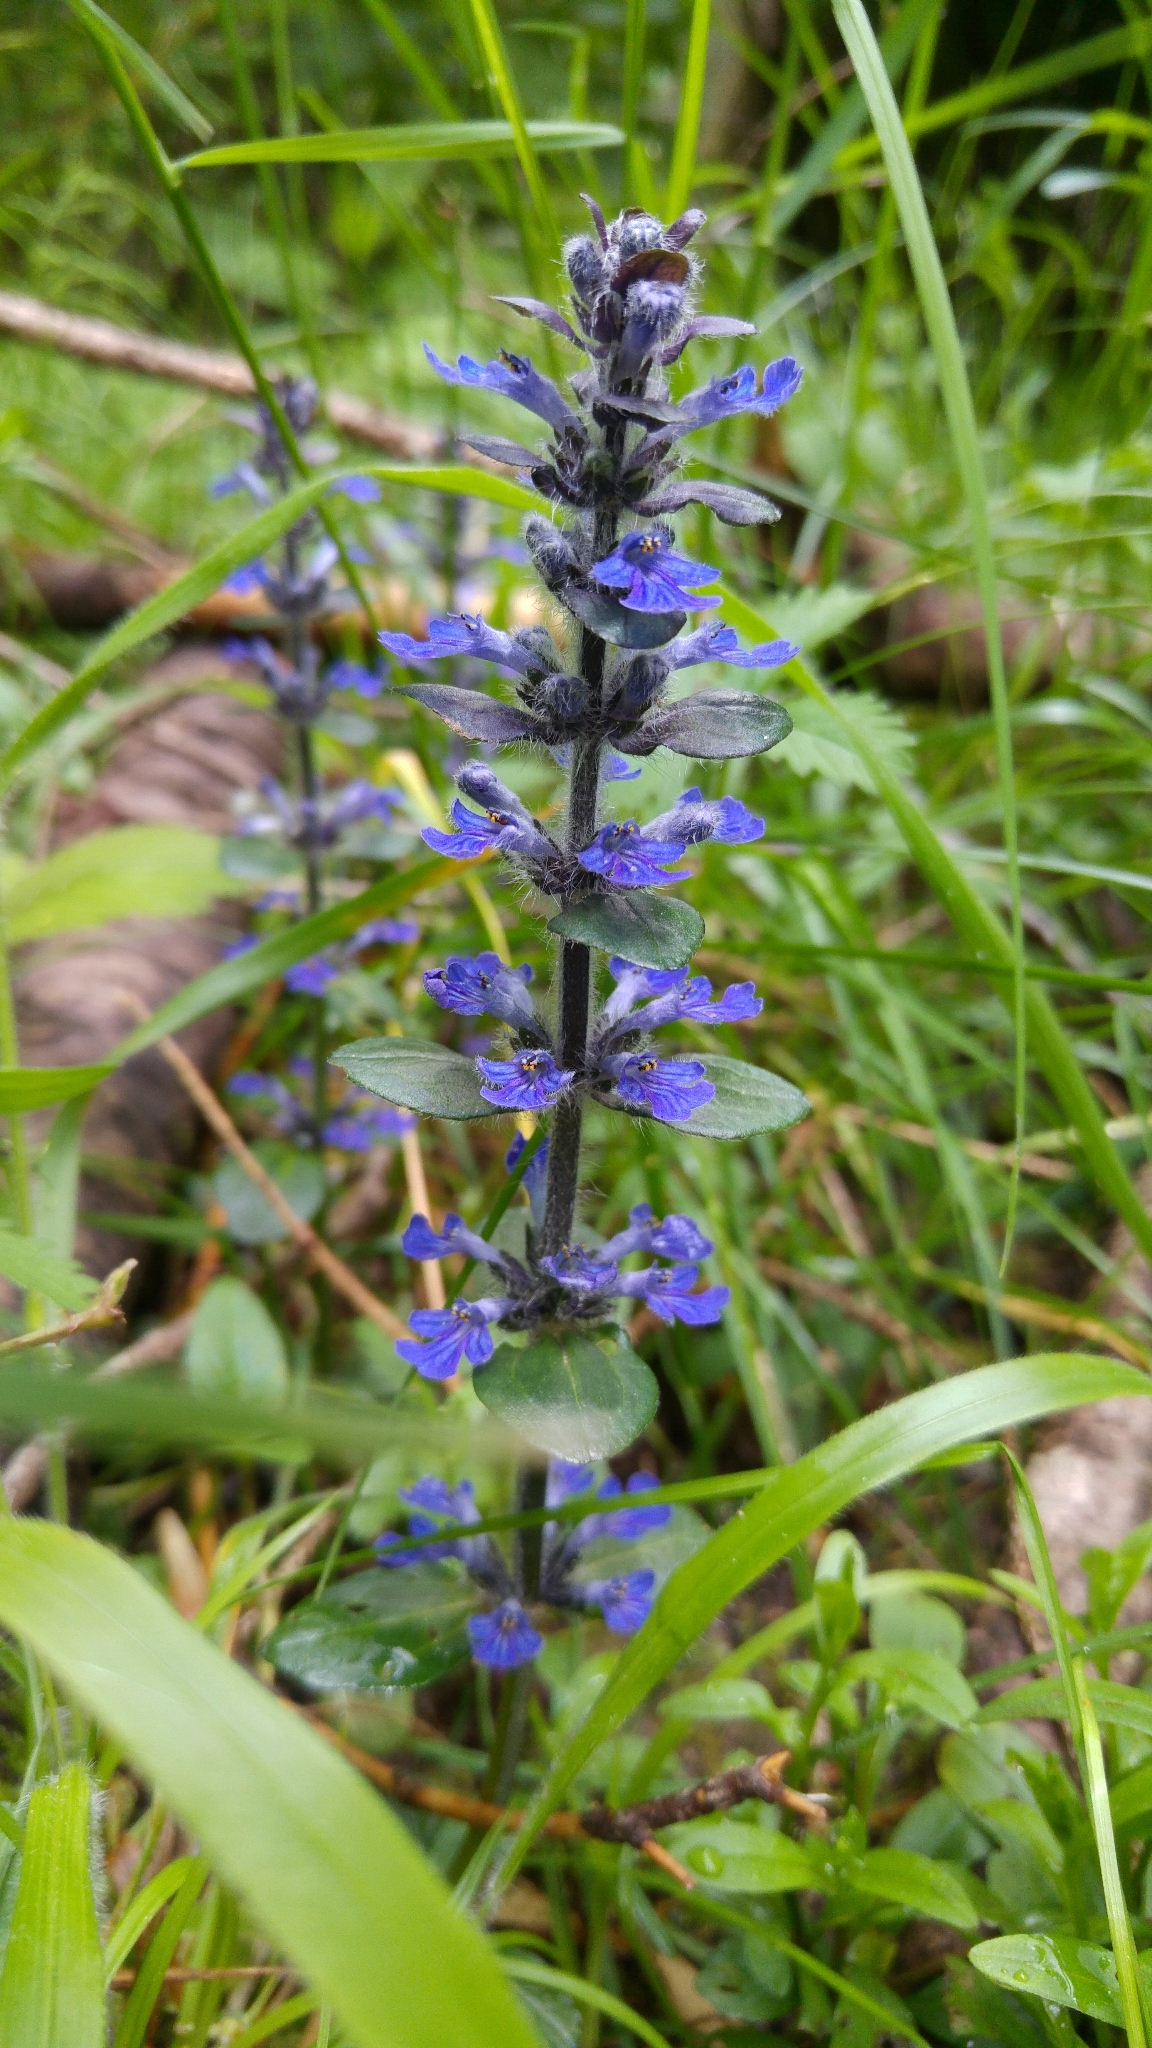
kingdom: Plantae
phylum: Tracheophyta
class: Magnoliopsida
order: Lamiales
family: Lamiaceae
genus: Ajuga
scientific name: Ajuga reptans
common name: Bugle
